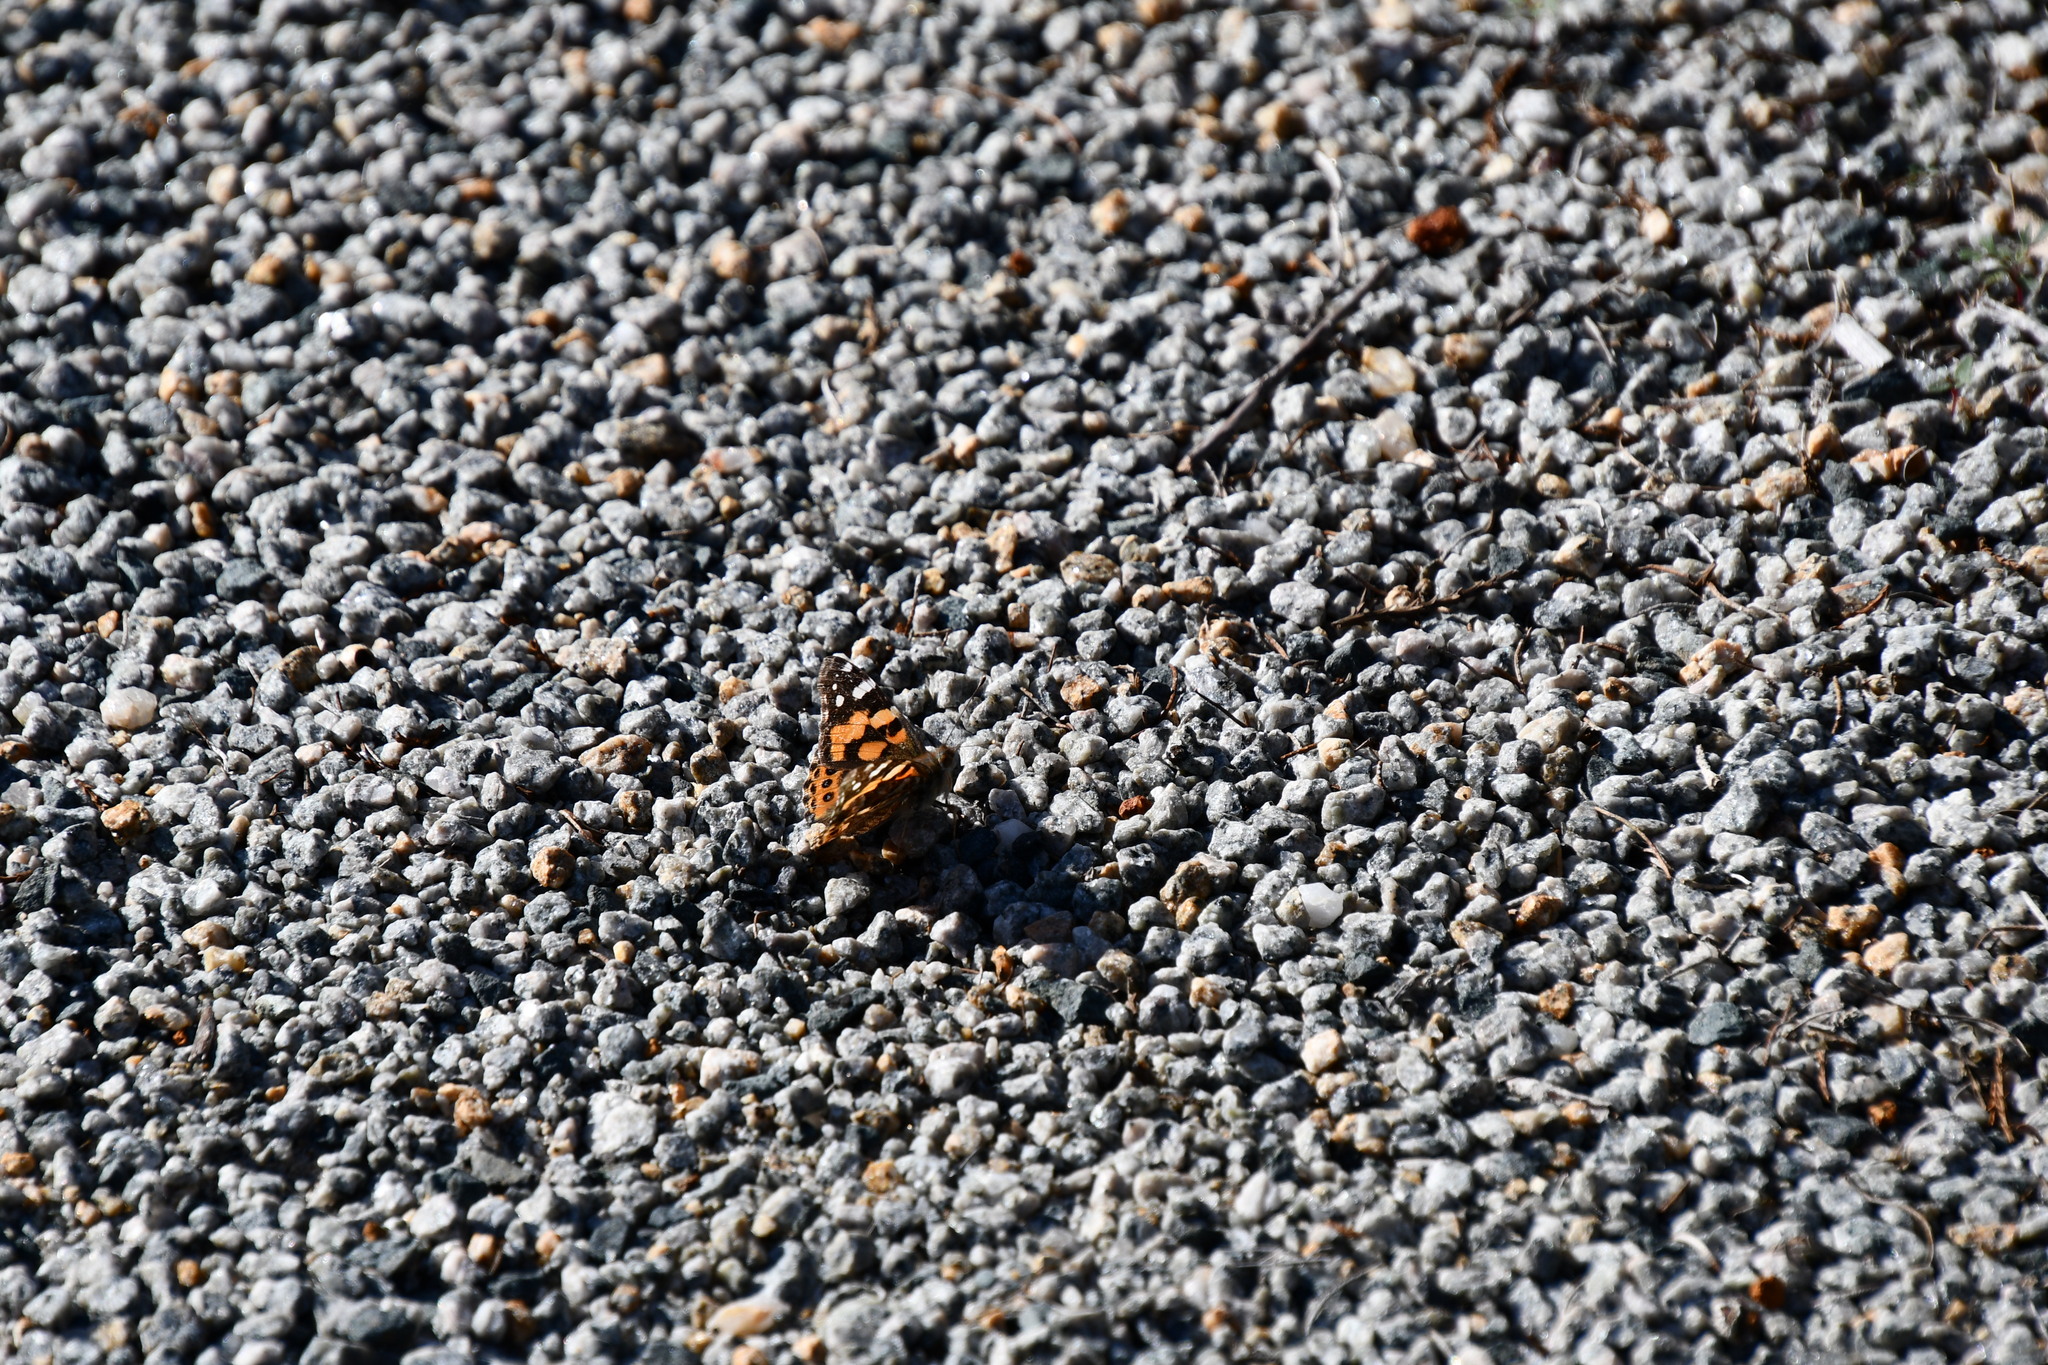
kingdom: Animalia
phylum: Arthropoda
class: Insecta
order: Lepidoptera
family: Nymphalidae
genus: Vanessa
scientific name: Vanessa kershawi
